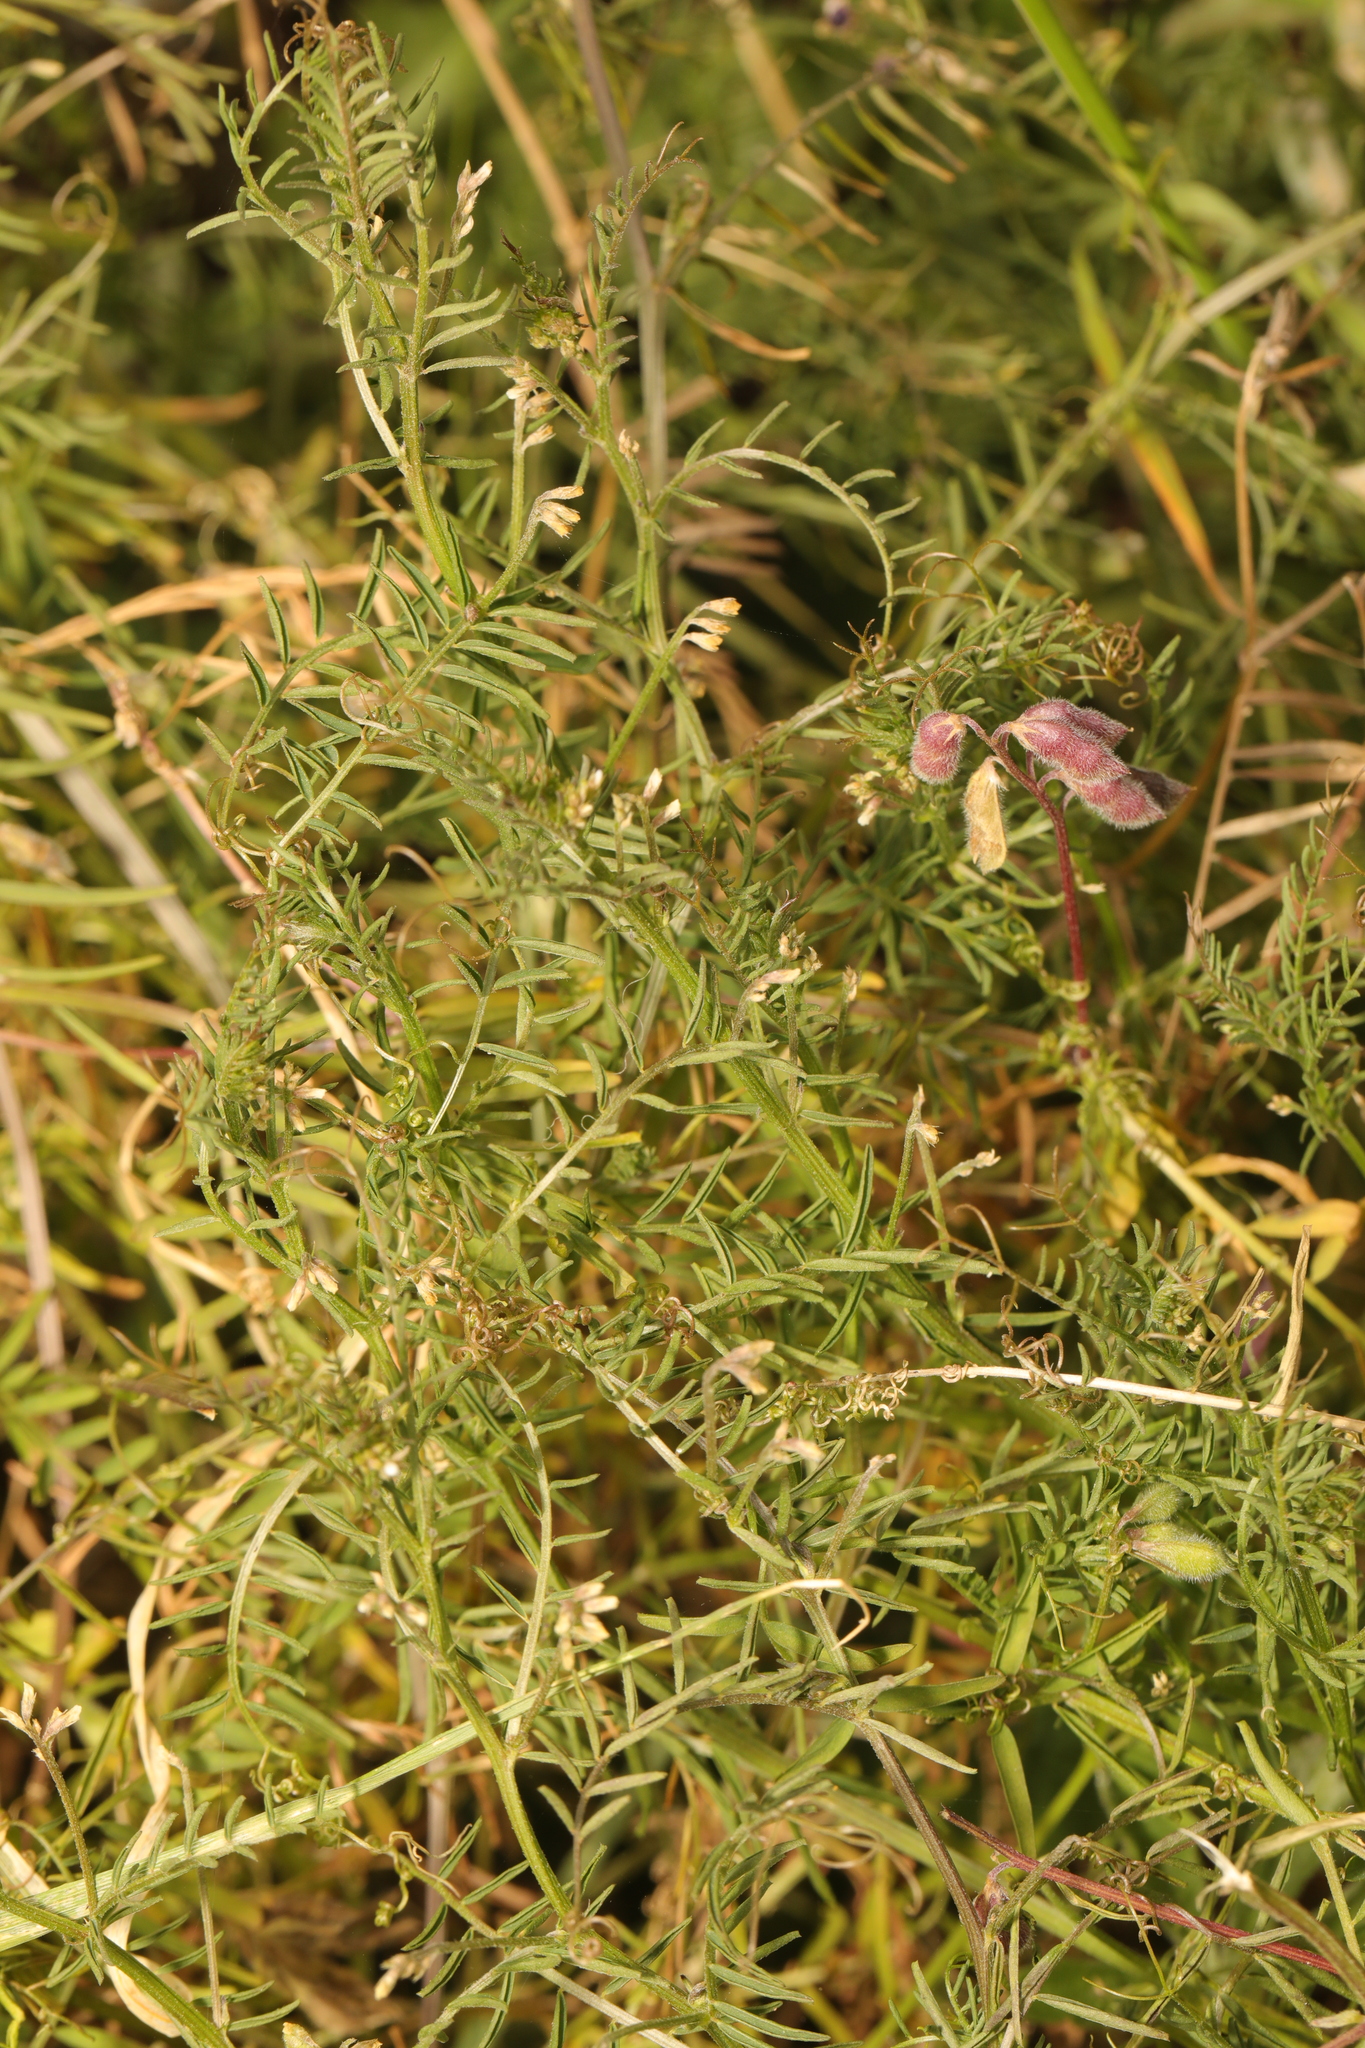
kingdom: Plantae
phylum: Tracheophyta
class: Magnoliopsida
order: Fabales
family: Fabaceae
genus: Vicia
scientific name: Vicia hirsuta
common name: Tiny vetch
